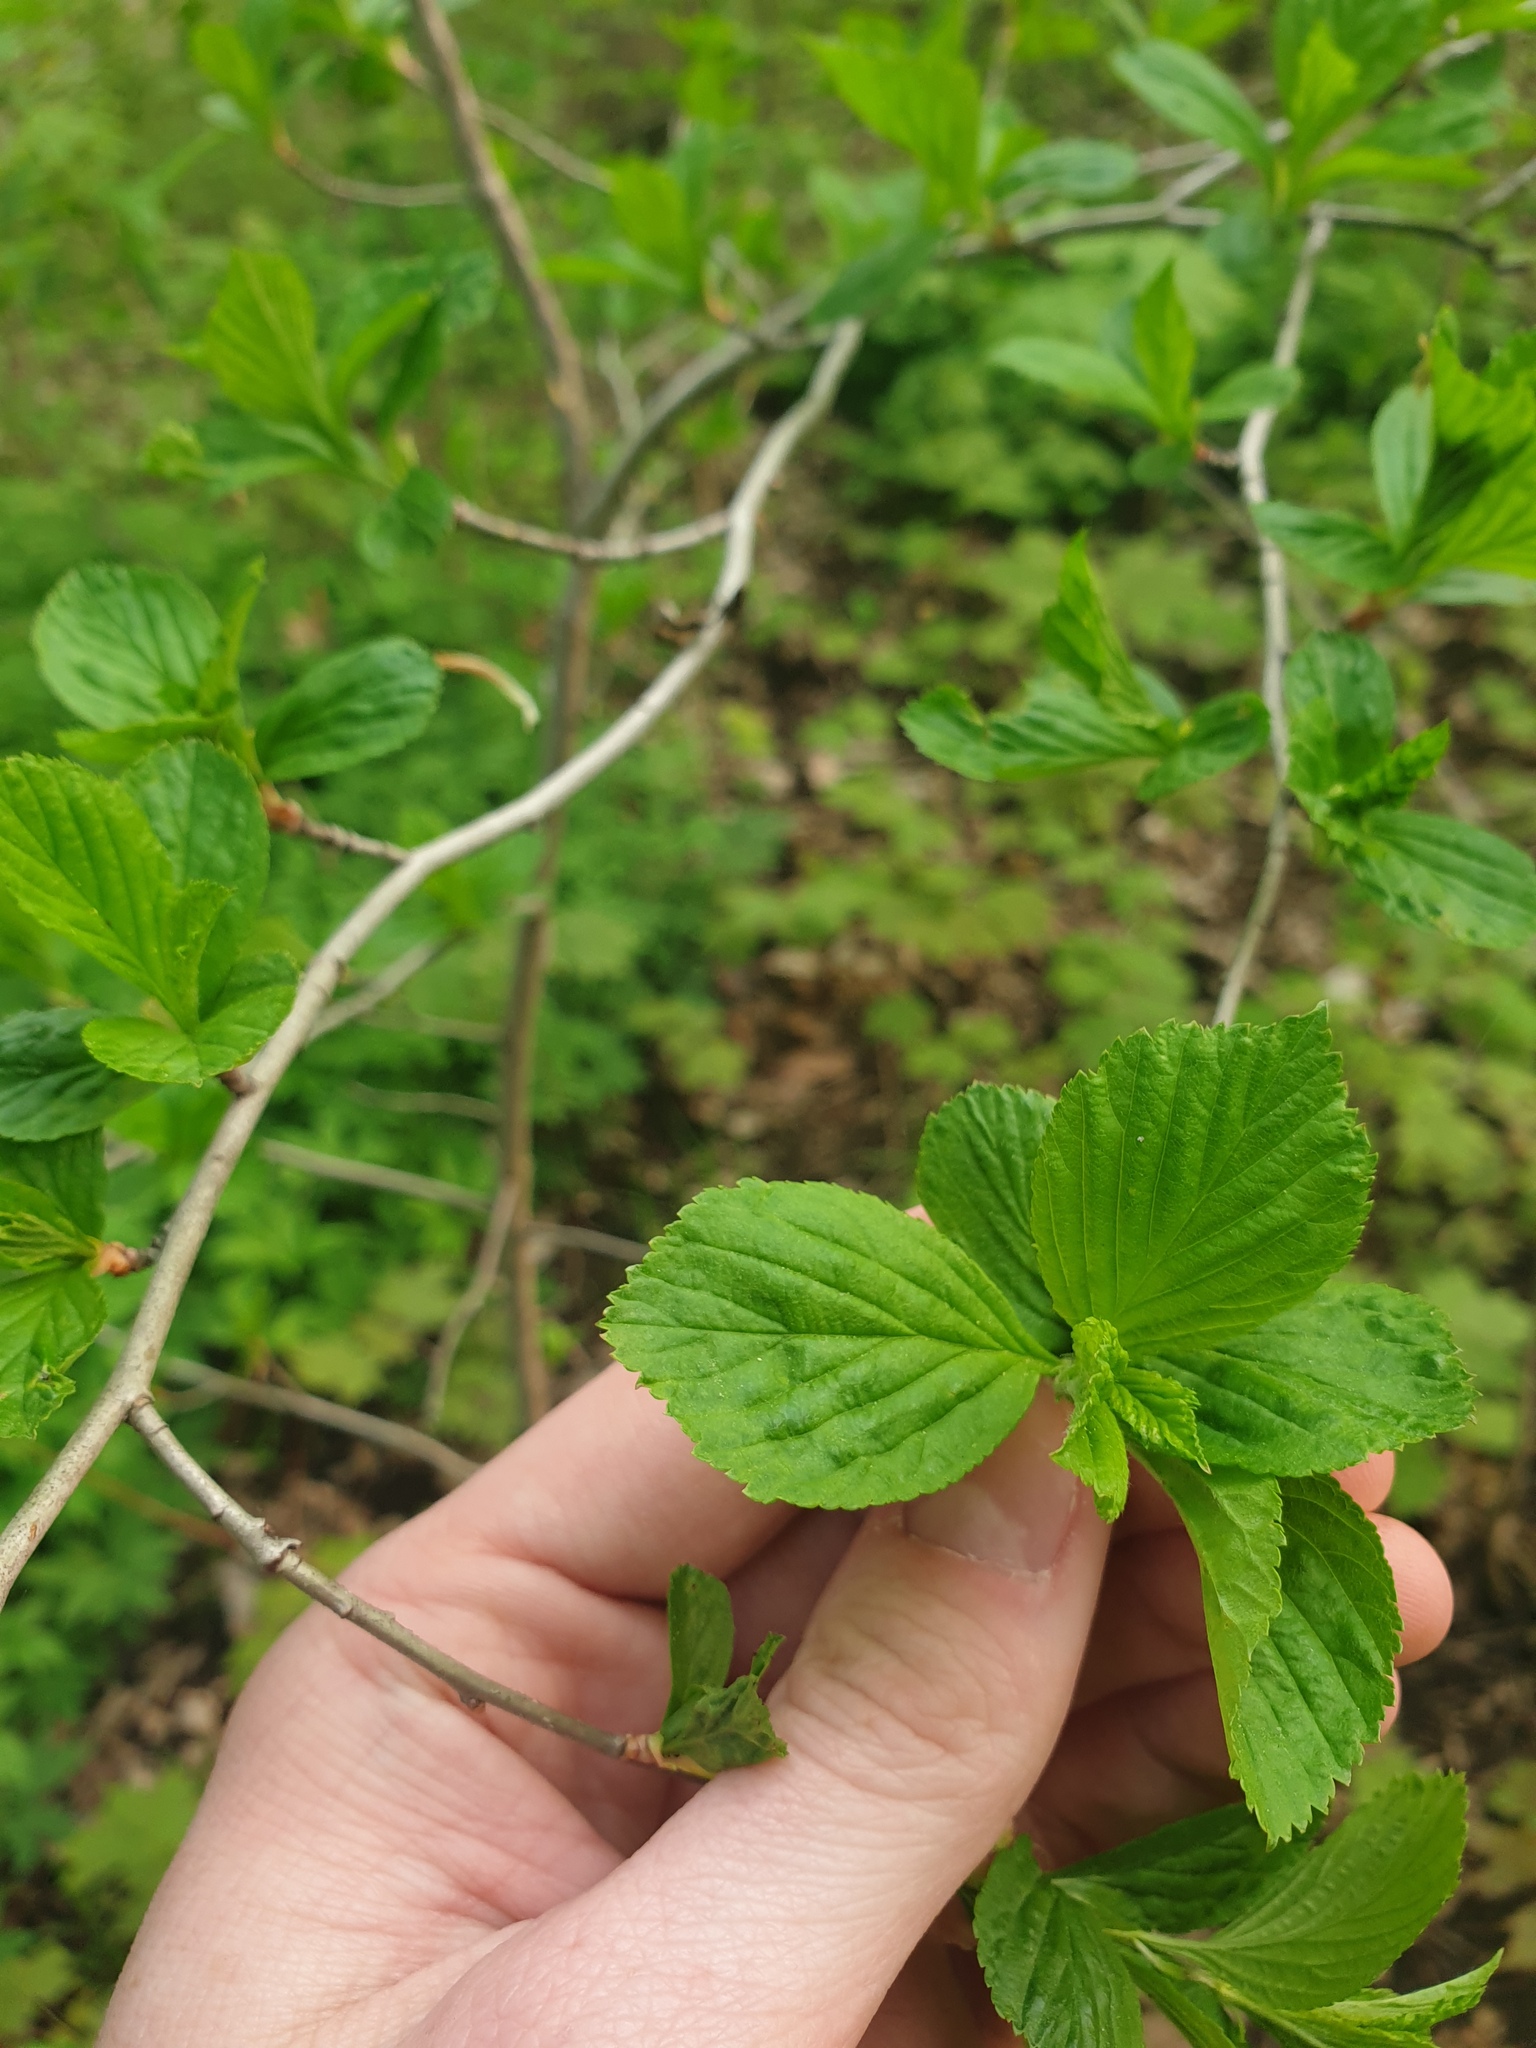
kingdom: Plantae
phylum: Tracheophyta
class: Magnoliopsida
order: Rosales
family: Rosaceae
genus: Crataegus
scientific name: Crataegus suborbiculata
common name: Caughnawaga hawthorn
